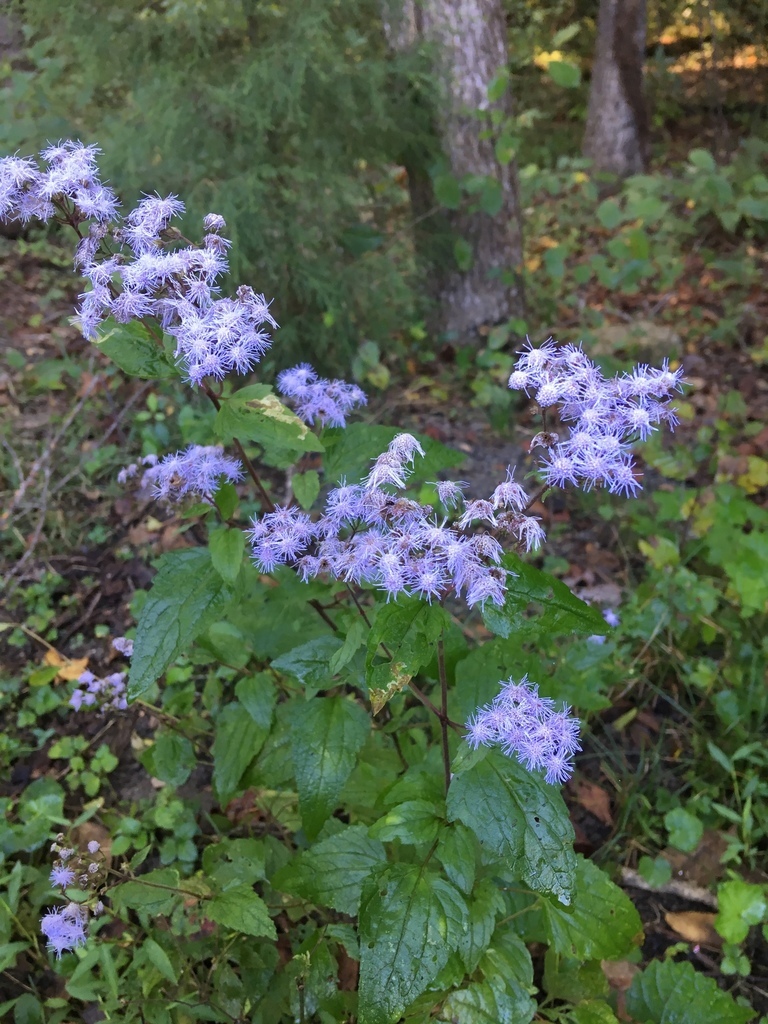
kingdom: Plantae
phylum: Tracheophyta
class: Magnoliopsida
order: Asterales
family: Asteraceae
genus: Conoclinium
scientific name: Conoclinium coelestinum
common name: Blue mistflower
